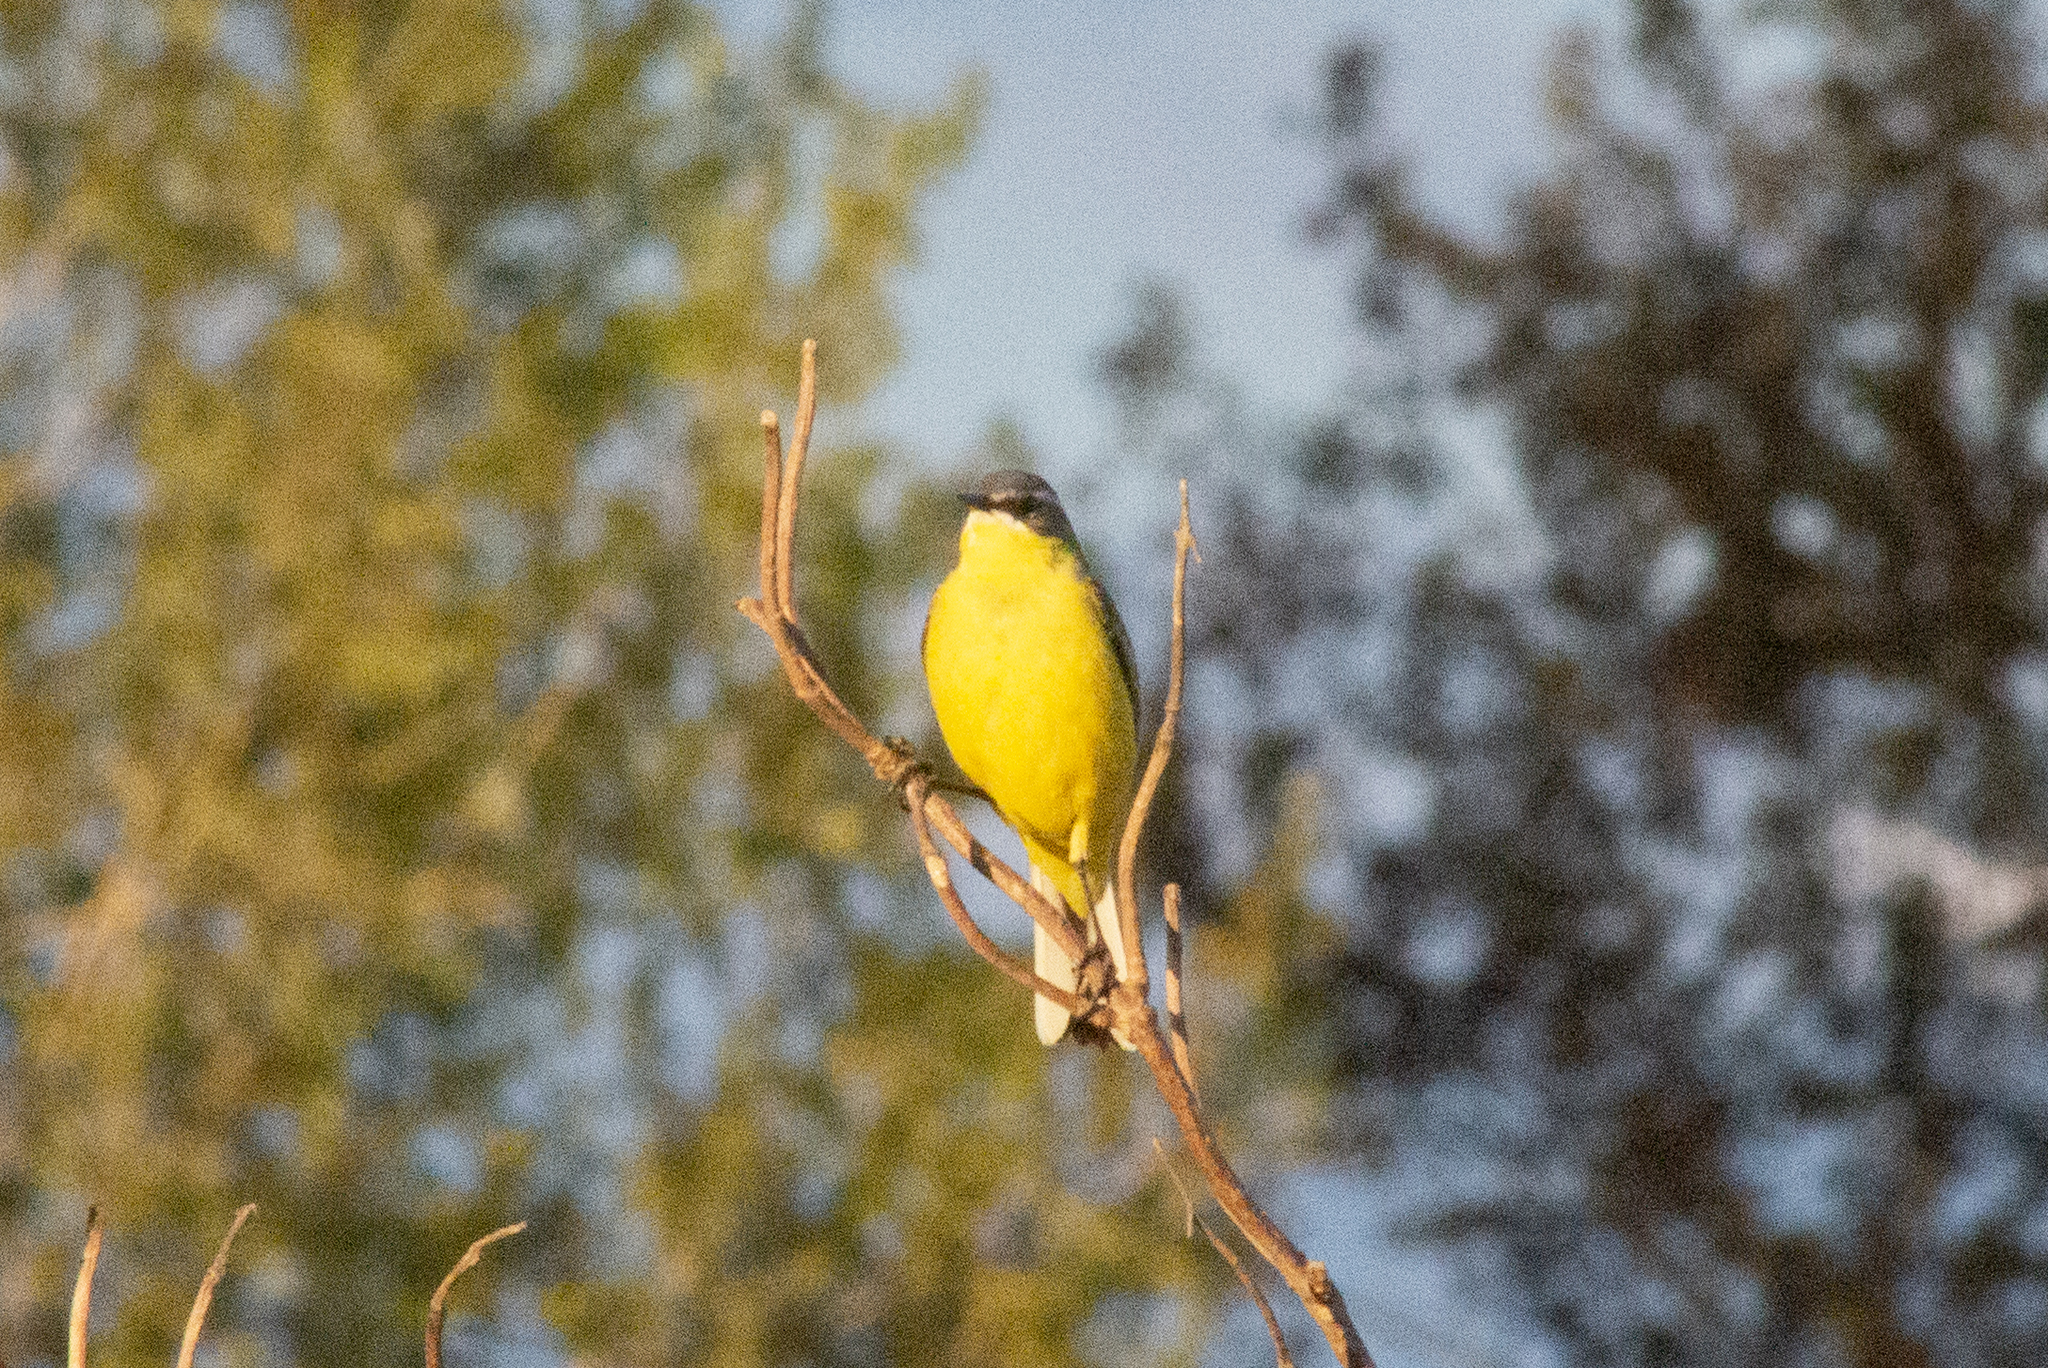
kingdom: Animalia
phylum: Chordata
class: Aves
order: Passeriformes
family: Motacillidae
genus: Motacilla
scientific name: Motacilla flava
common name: Western yellow wagtail
